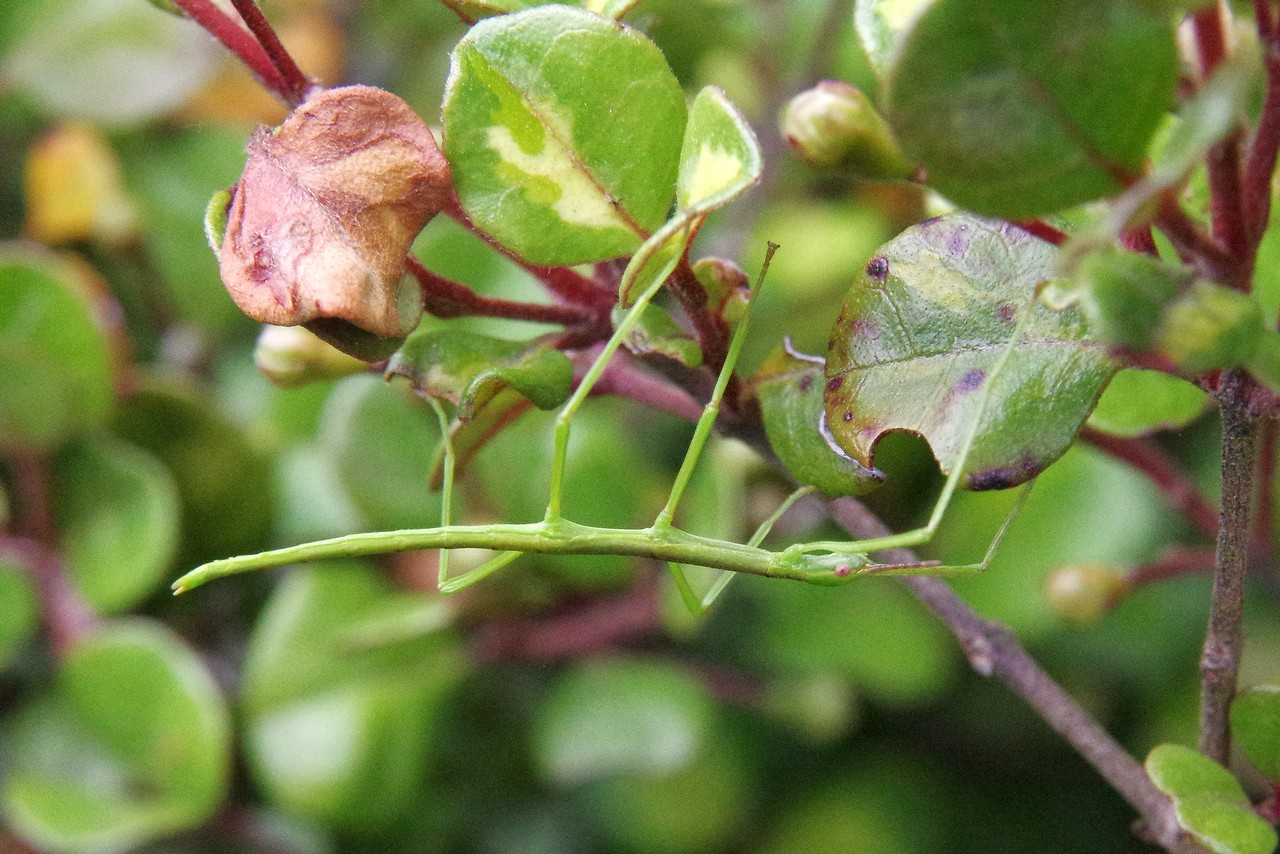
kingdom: Animalia
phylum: Arthropoda
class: Insecta
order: Phasmida
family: Phasmatidae
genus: Acanthoxyla
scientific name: Acanthoxyla inermis
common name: Unarmed stick insect
